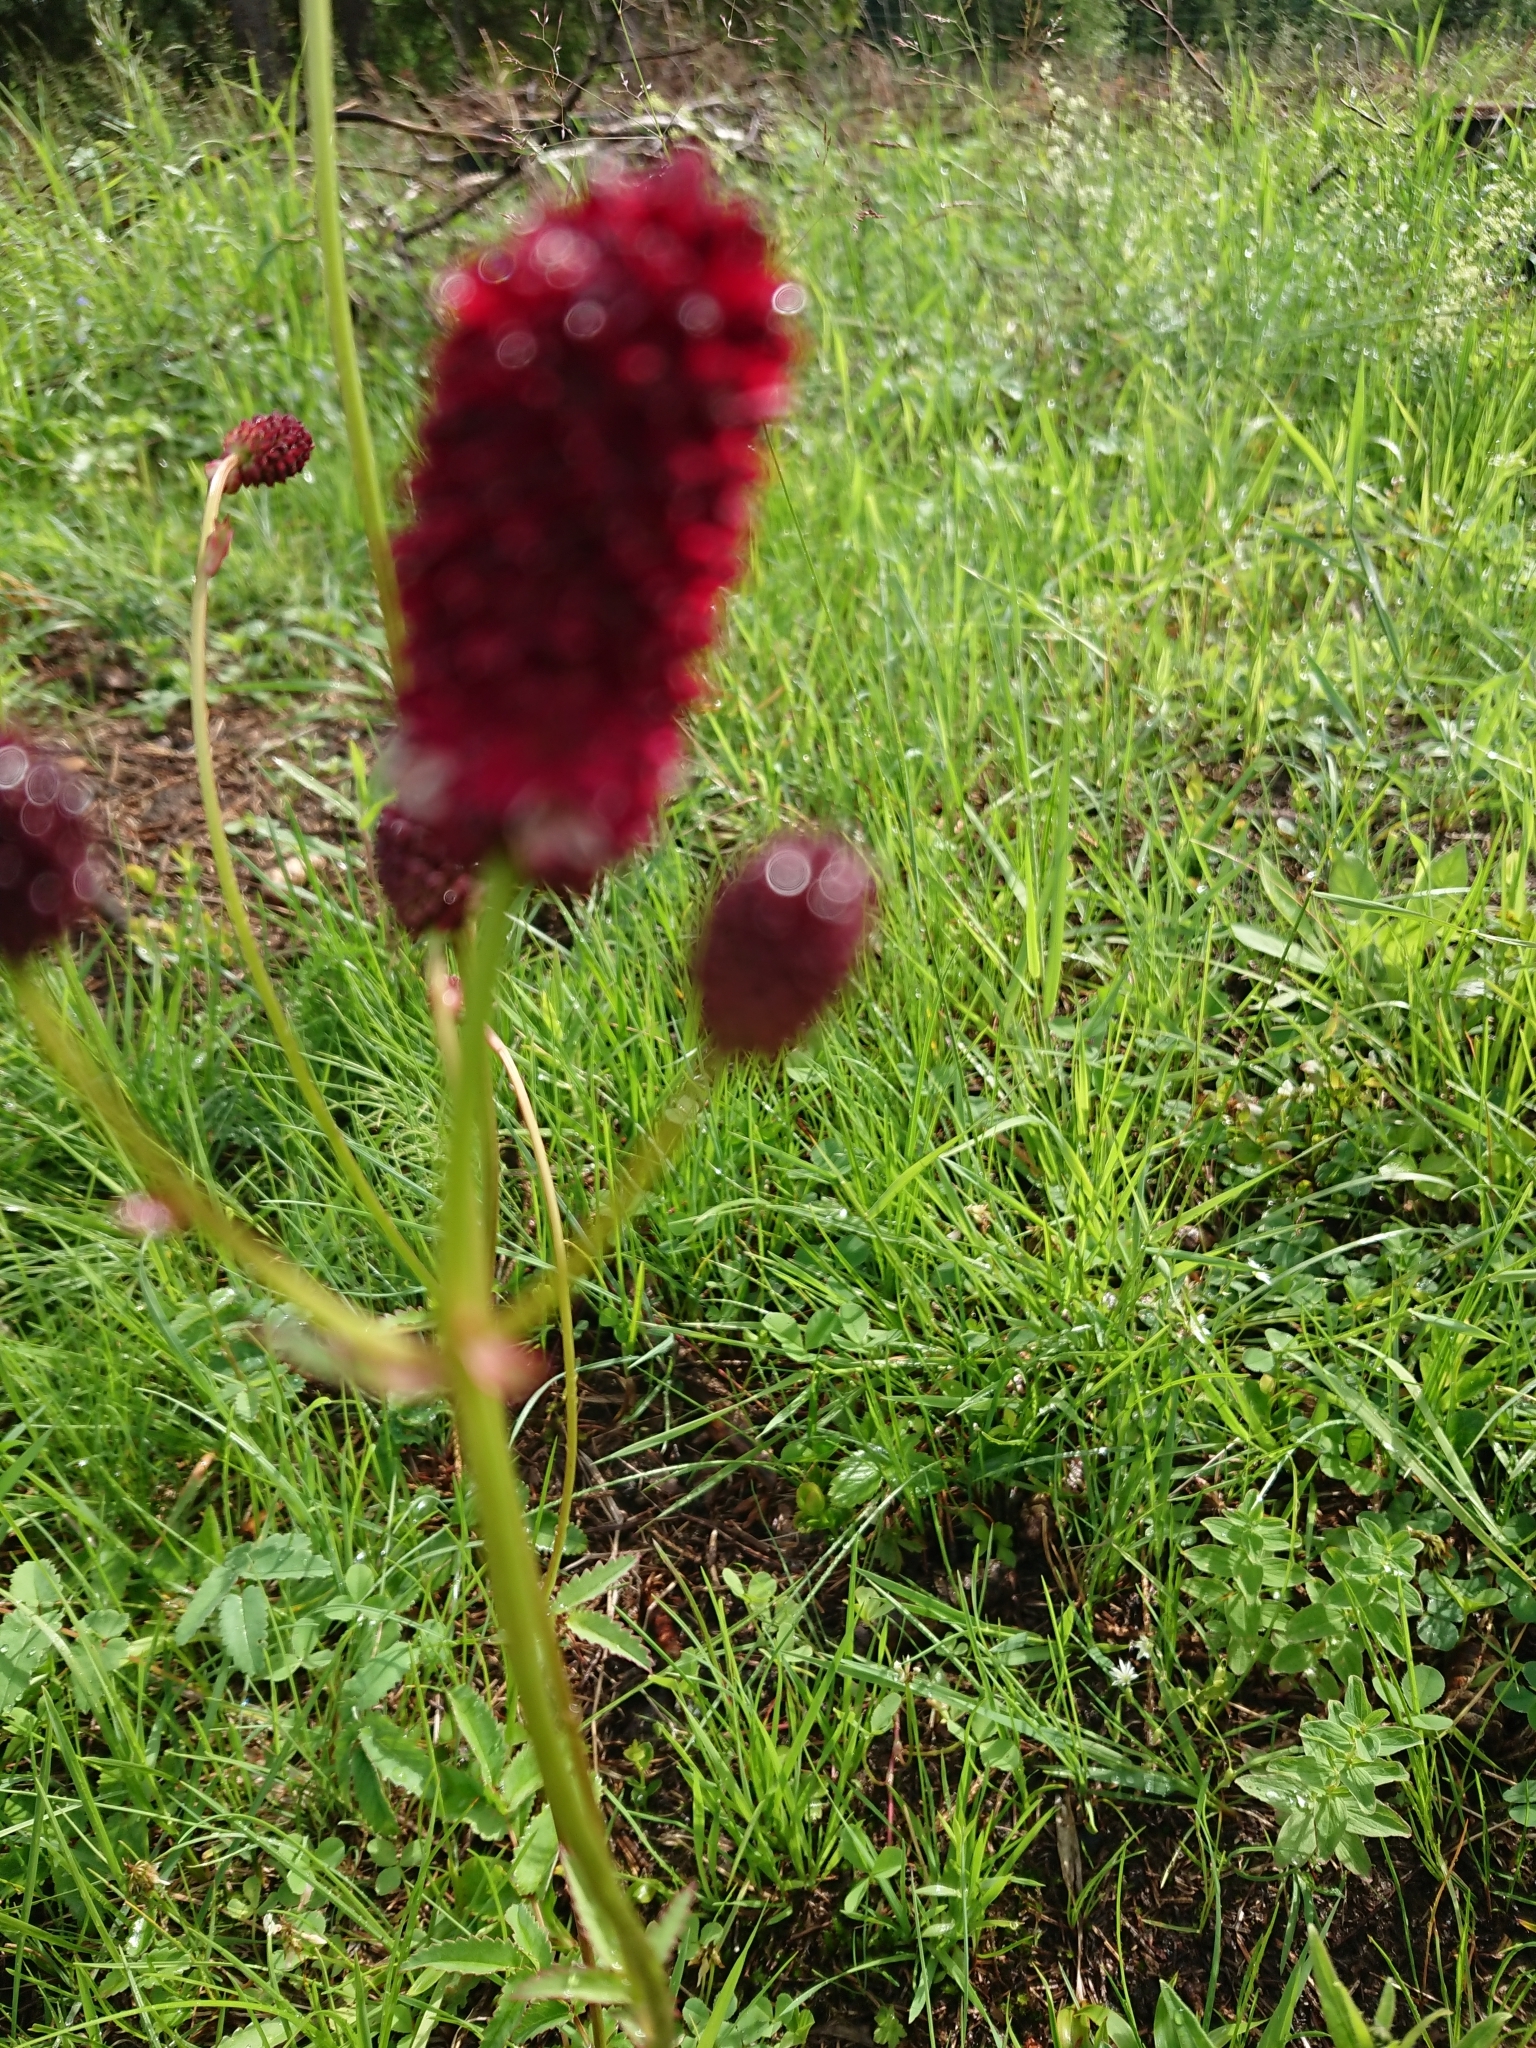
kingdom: Plantae
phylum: Tracheophyta
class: Magnoliopsida
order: Rosales
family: Rosaceae
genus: Sanguisorba
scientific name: Sanguisorba officinalis
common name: Great burnet
